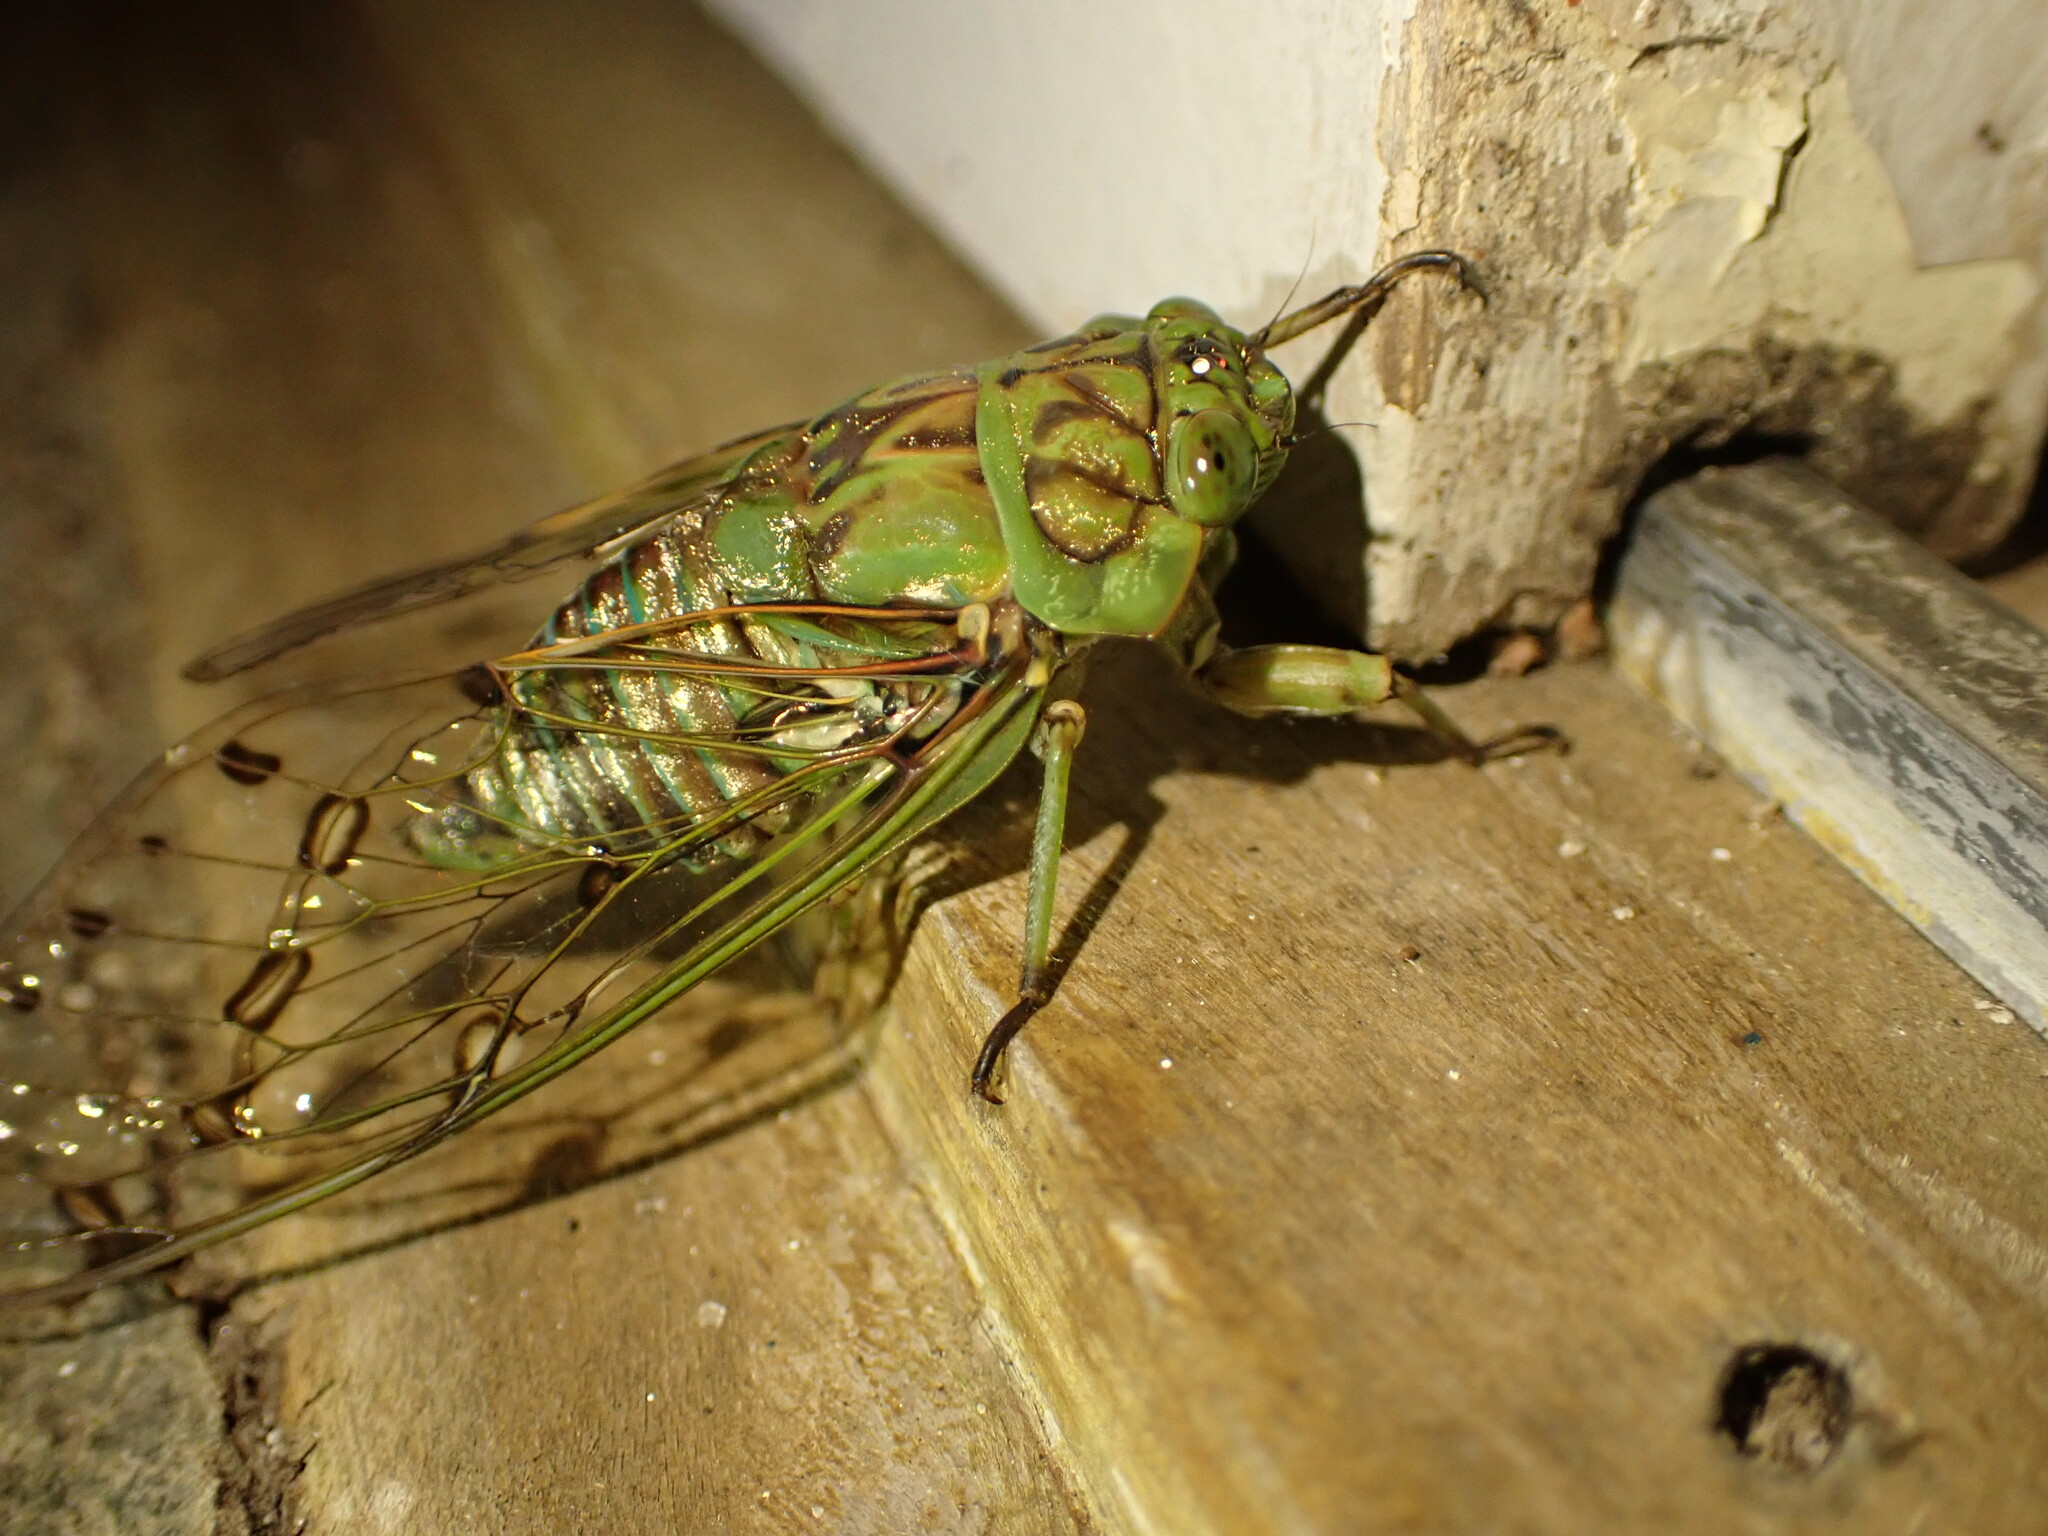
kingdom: Animalia
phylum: Arthropoda
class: Insecta
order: Hemiptera
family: Cicadidae
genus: Zammara
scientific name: Zammara tympanum
